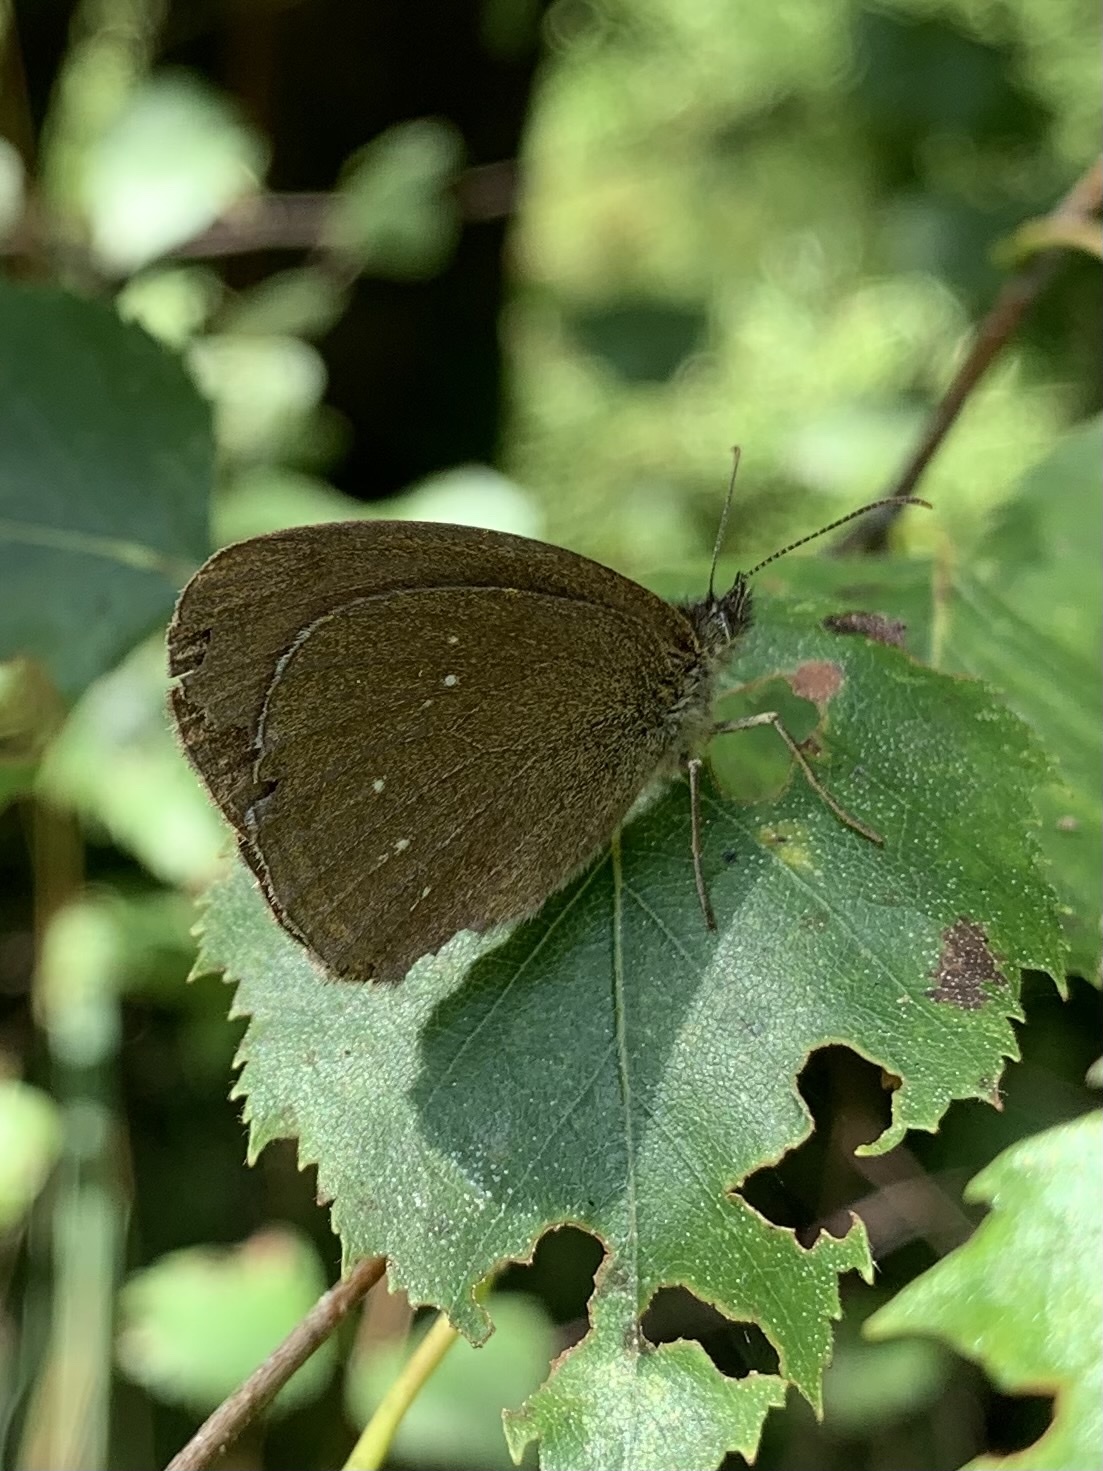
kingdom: Animalia
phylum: Arthropoda
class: Insecta
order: Lepidoptera
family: Nymphalidae
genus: Aphantopus
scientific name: Aphantopus hyperantus
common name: Ringlet
